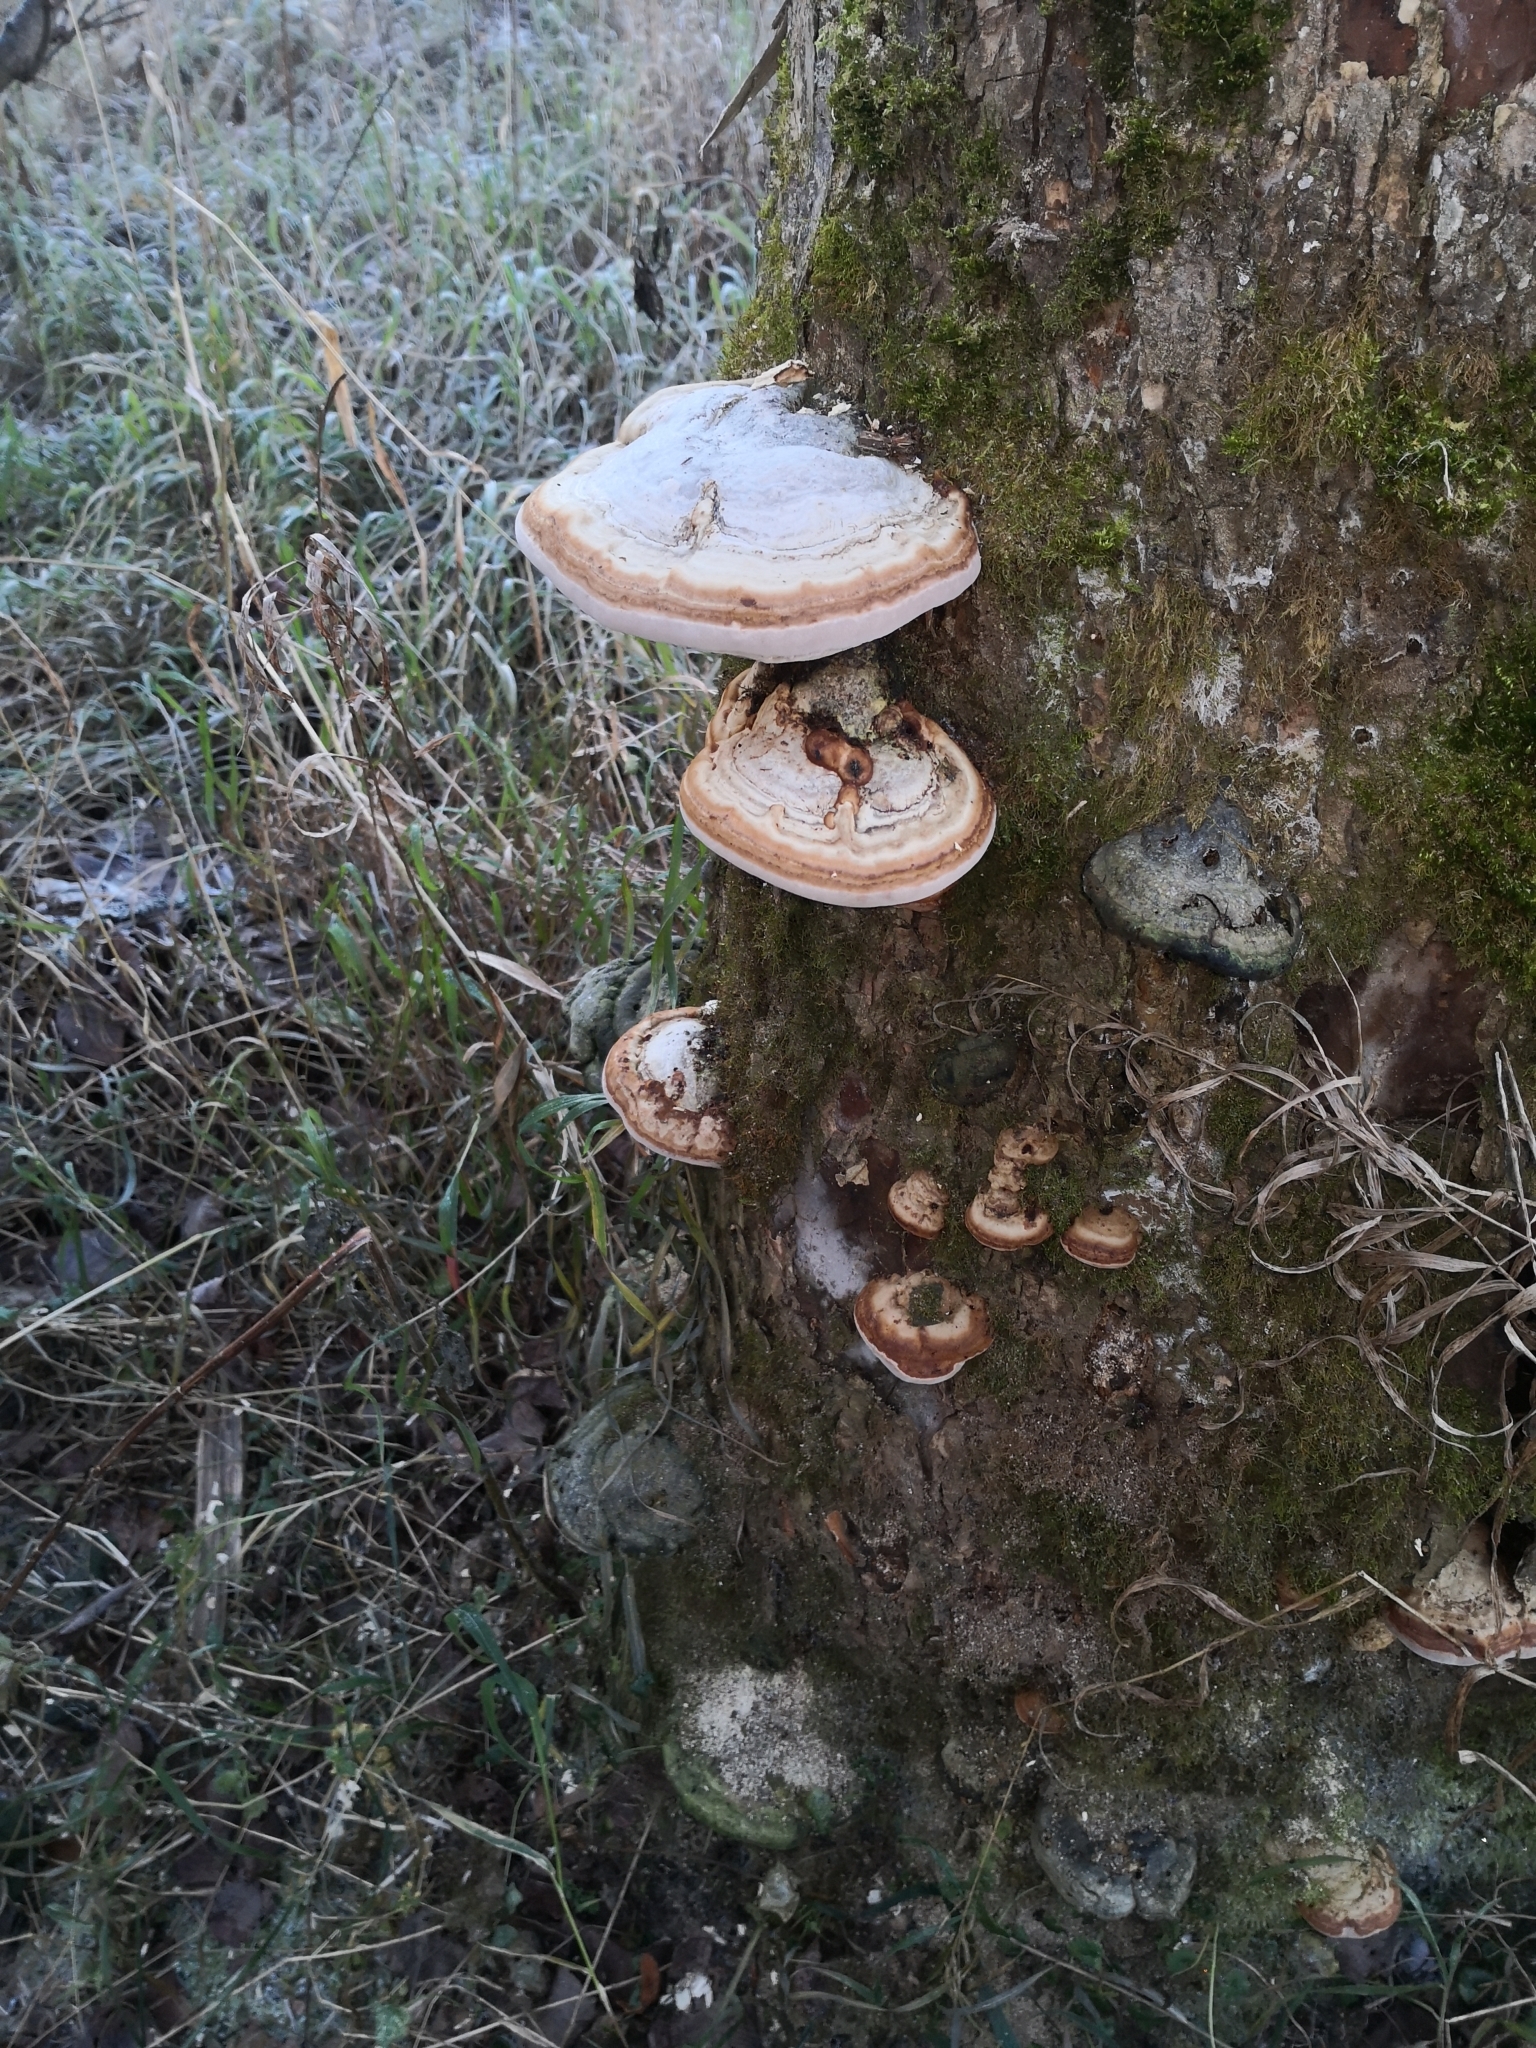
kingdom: Fungi
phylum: Basidiomycota
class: Agaricomycetes
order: Polyporales
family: Polyporaceae
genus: Fomes
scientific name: Fomes fomentarius
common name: Hoof fungus
